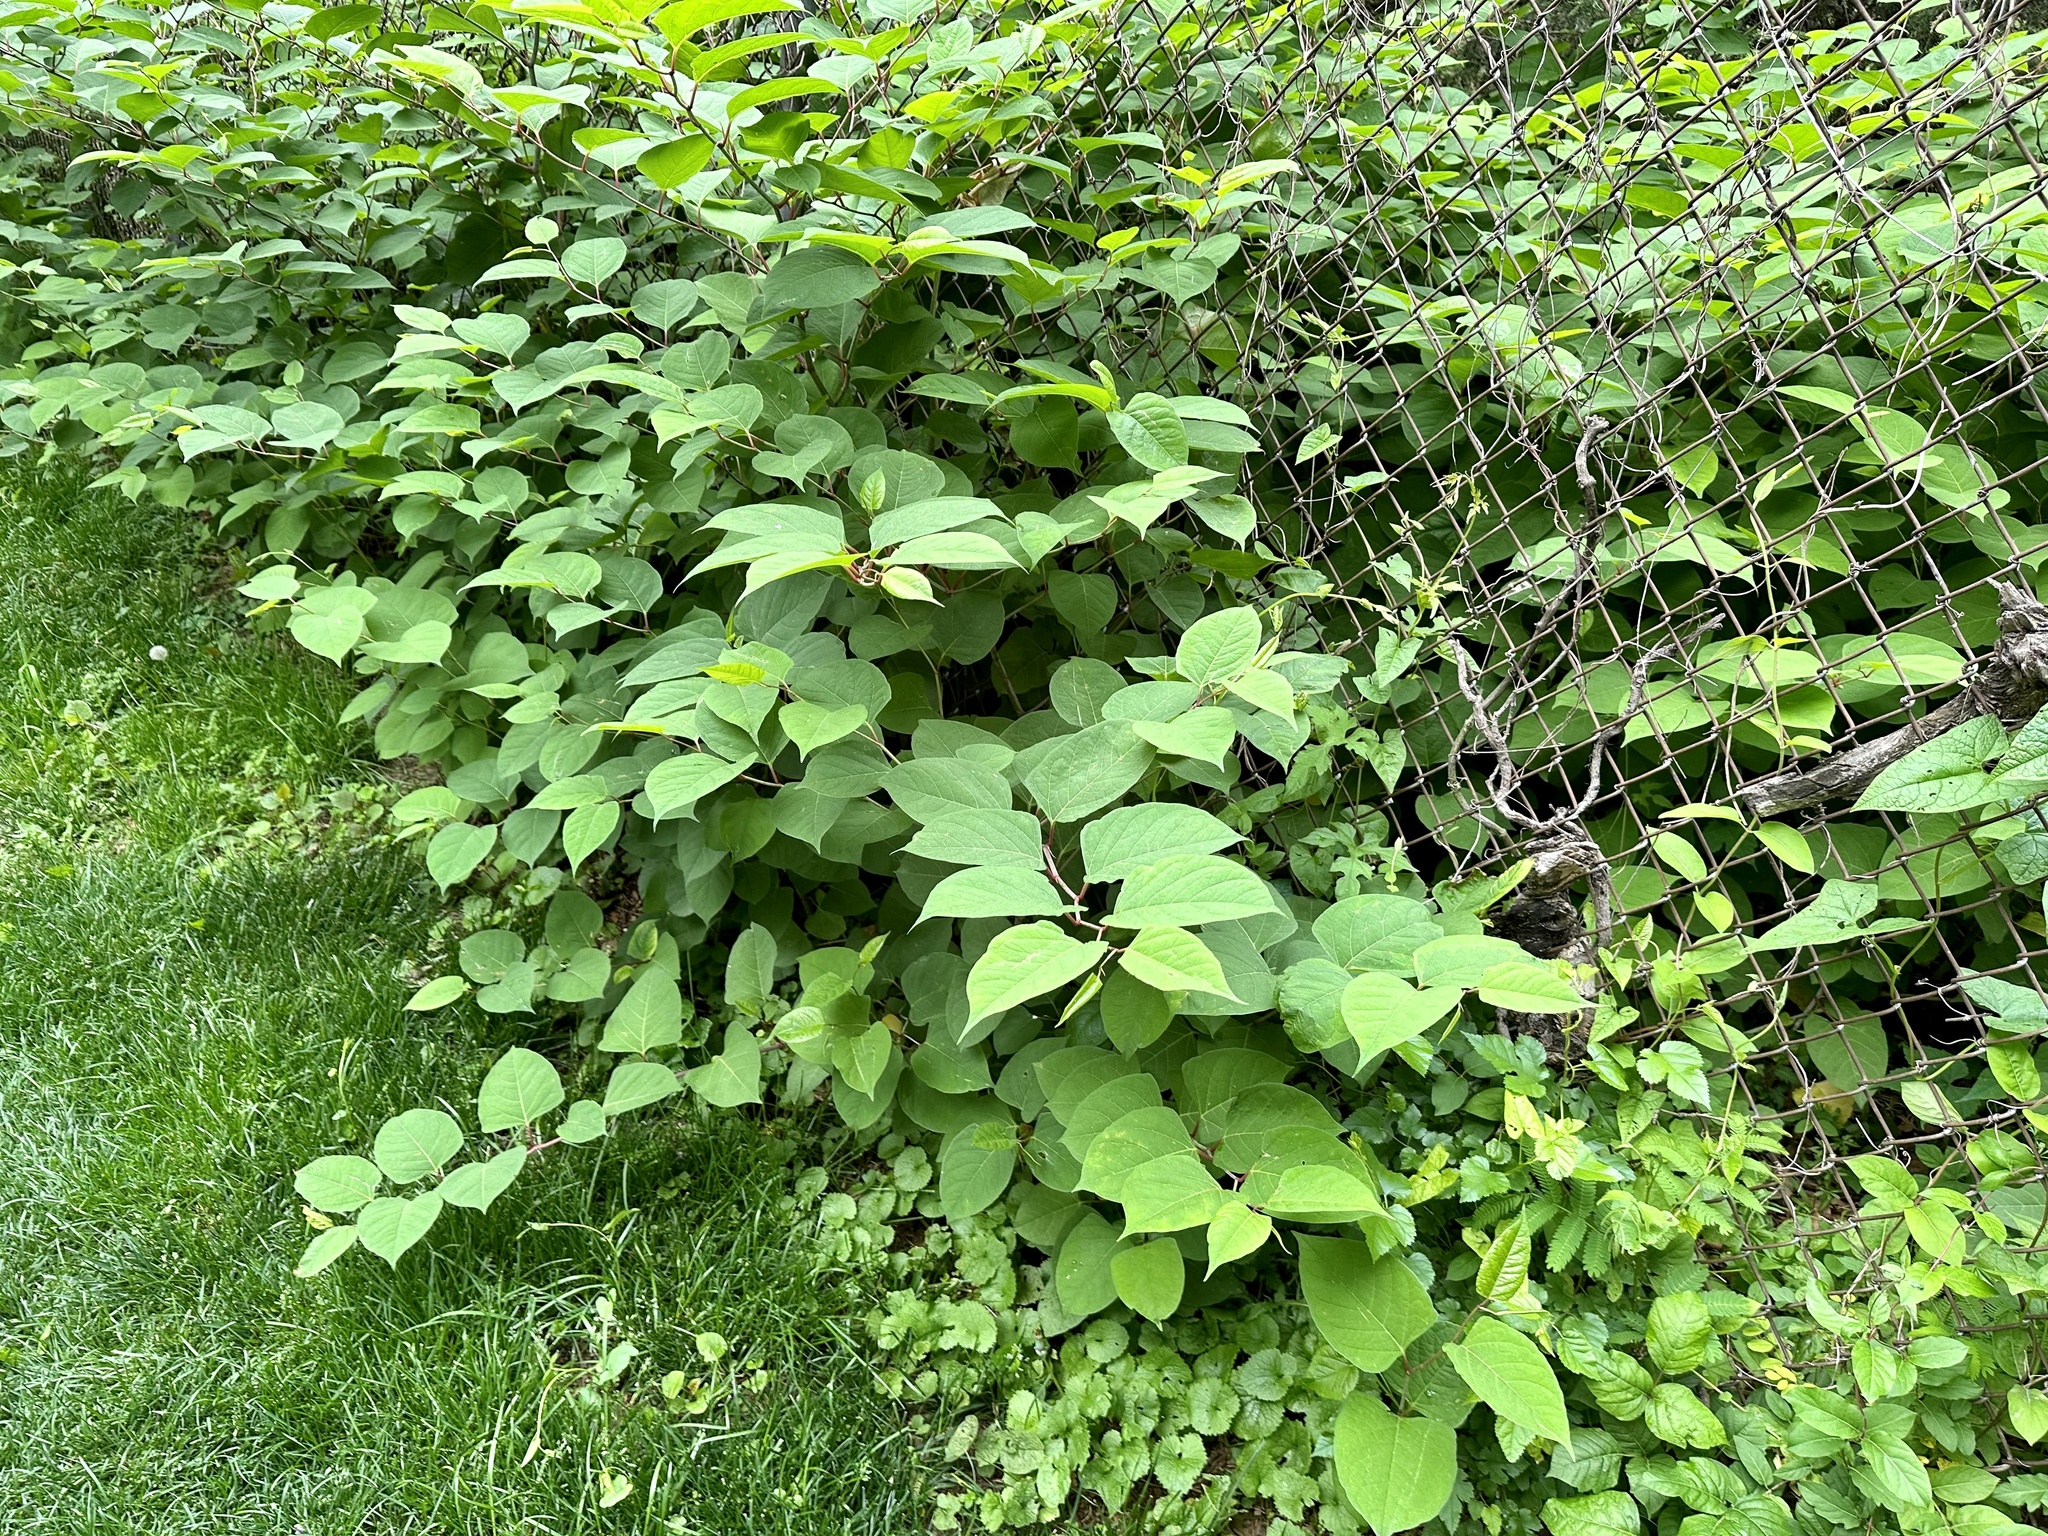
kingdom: Plantae
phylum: Tracheophyta
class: Magnoliopsida
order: Caryophyllales
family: Polygonaceae
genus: Reynoutria
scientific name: Reynoutria japonica
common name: Japanese knotweed
